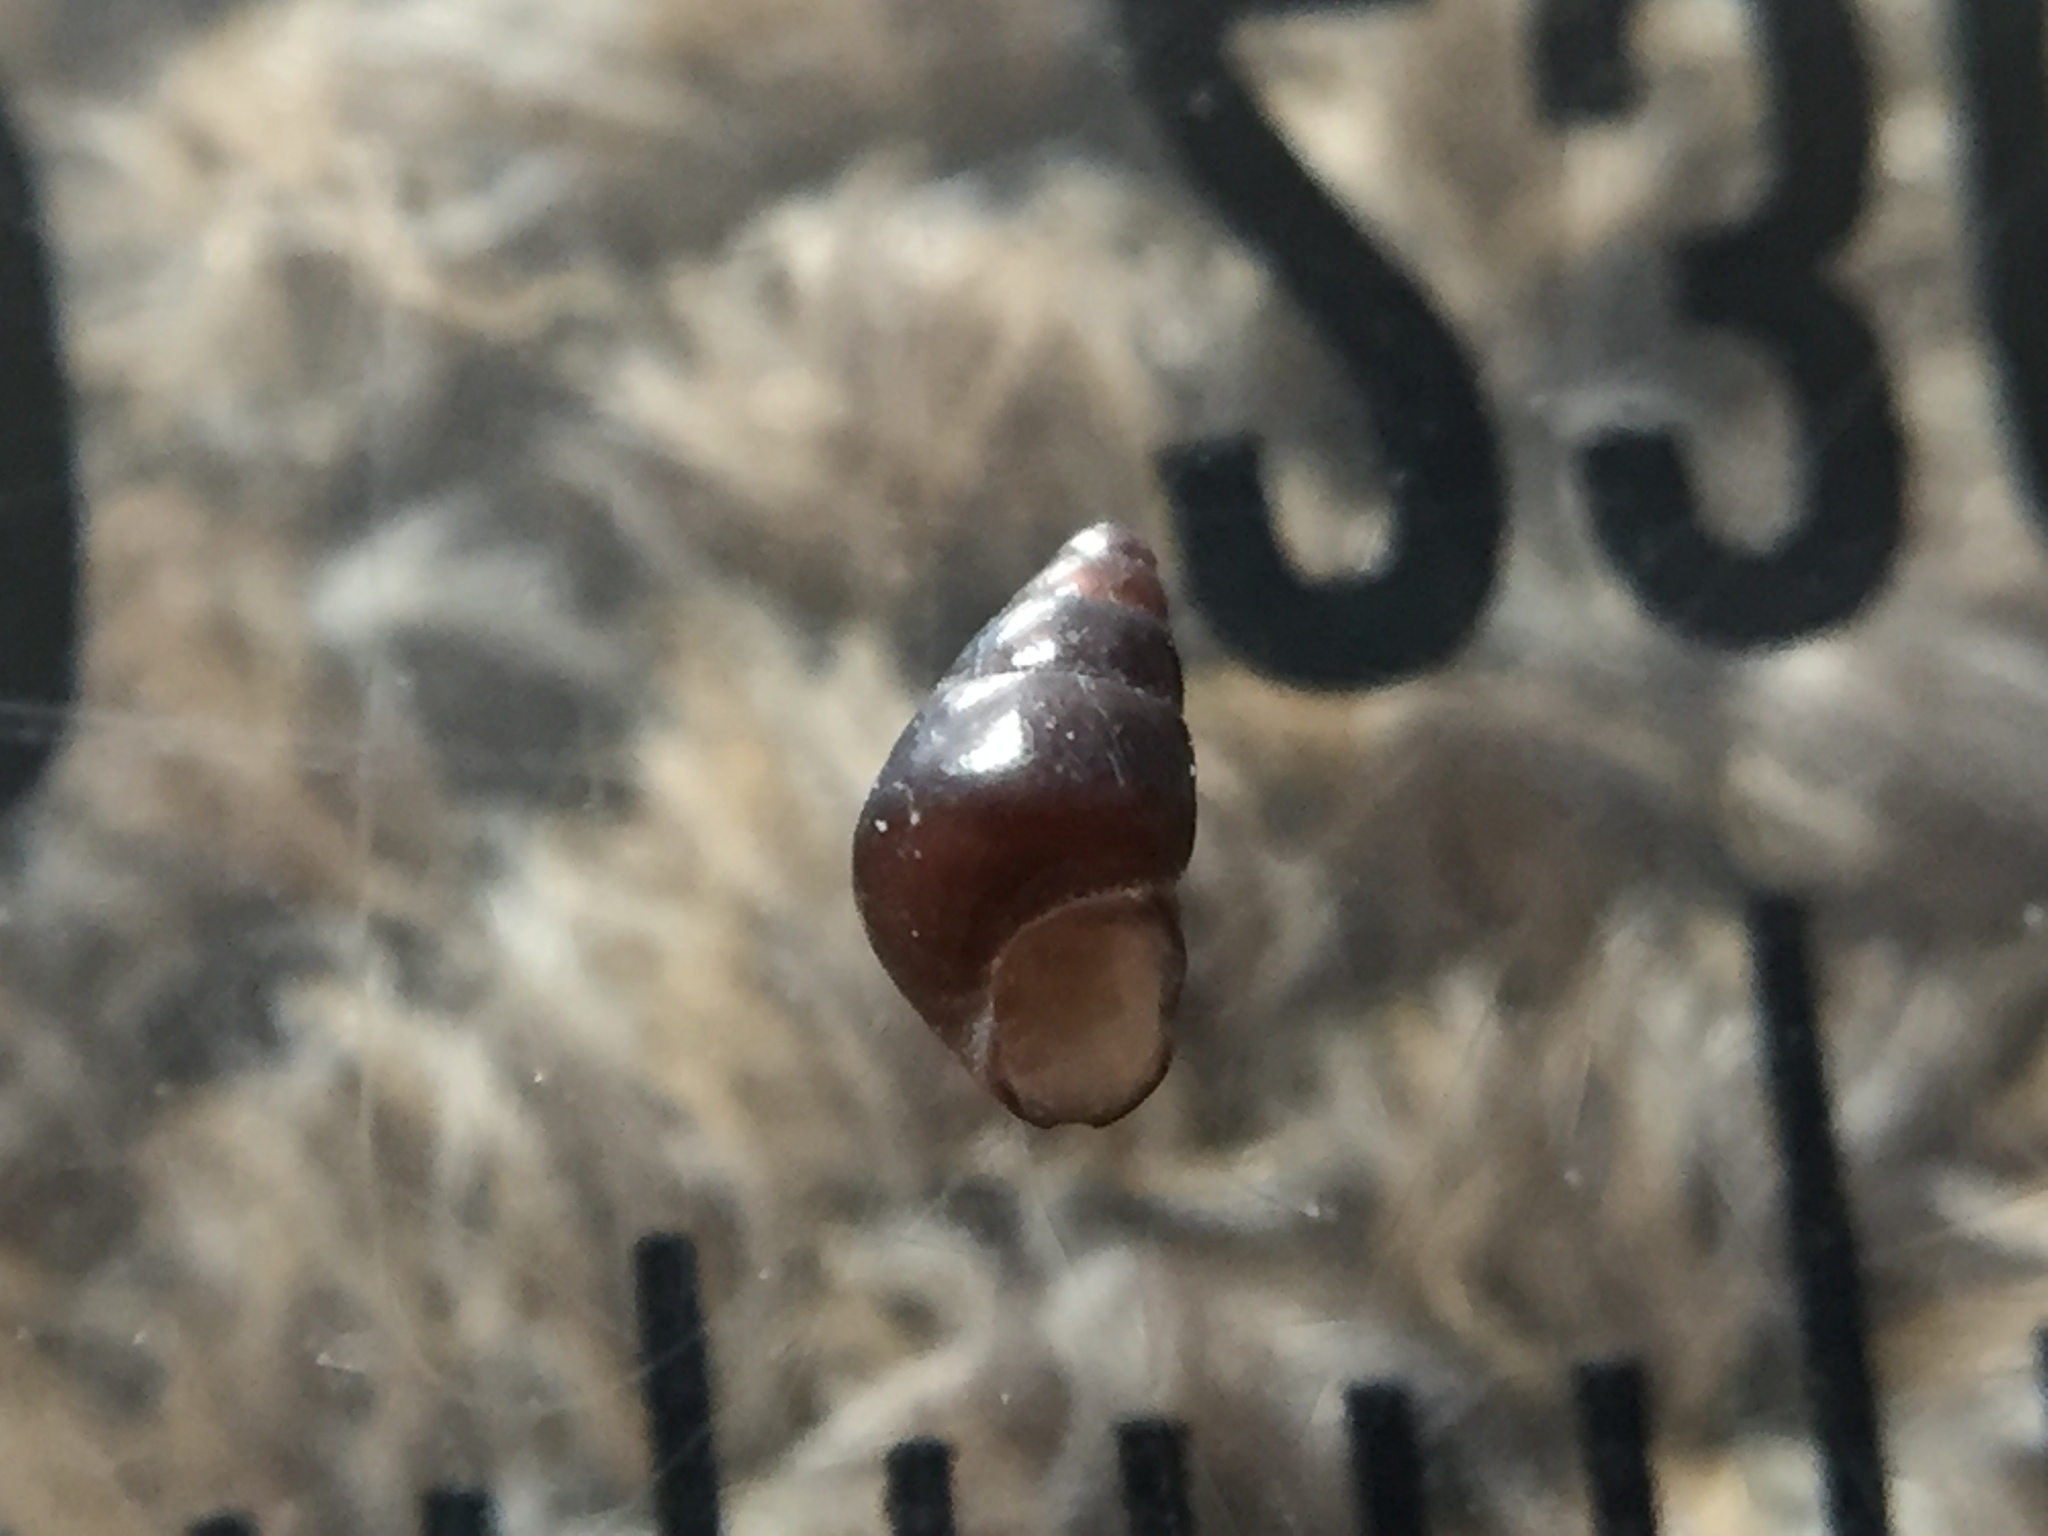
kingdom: Animalia
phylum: Mollusca
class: Gastropoda
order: Littorinimorpha
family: Eatoniellidae
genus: Eatoniella
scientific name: Eatoniella olivacea
